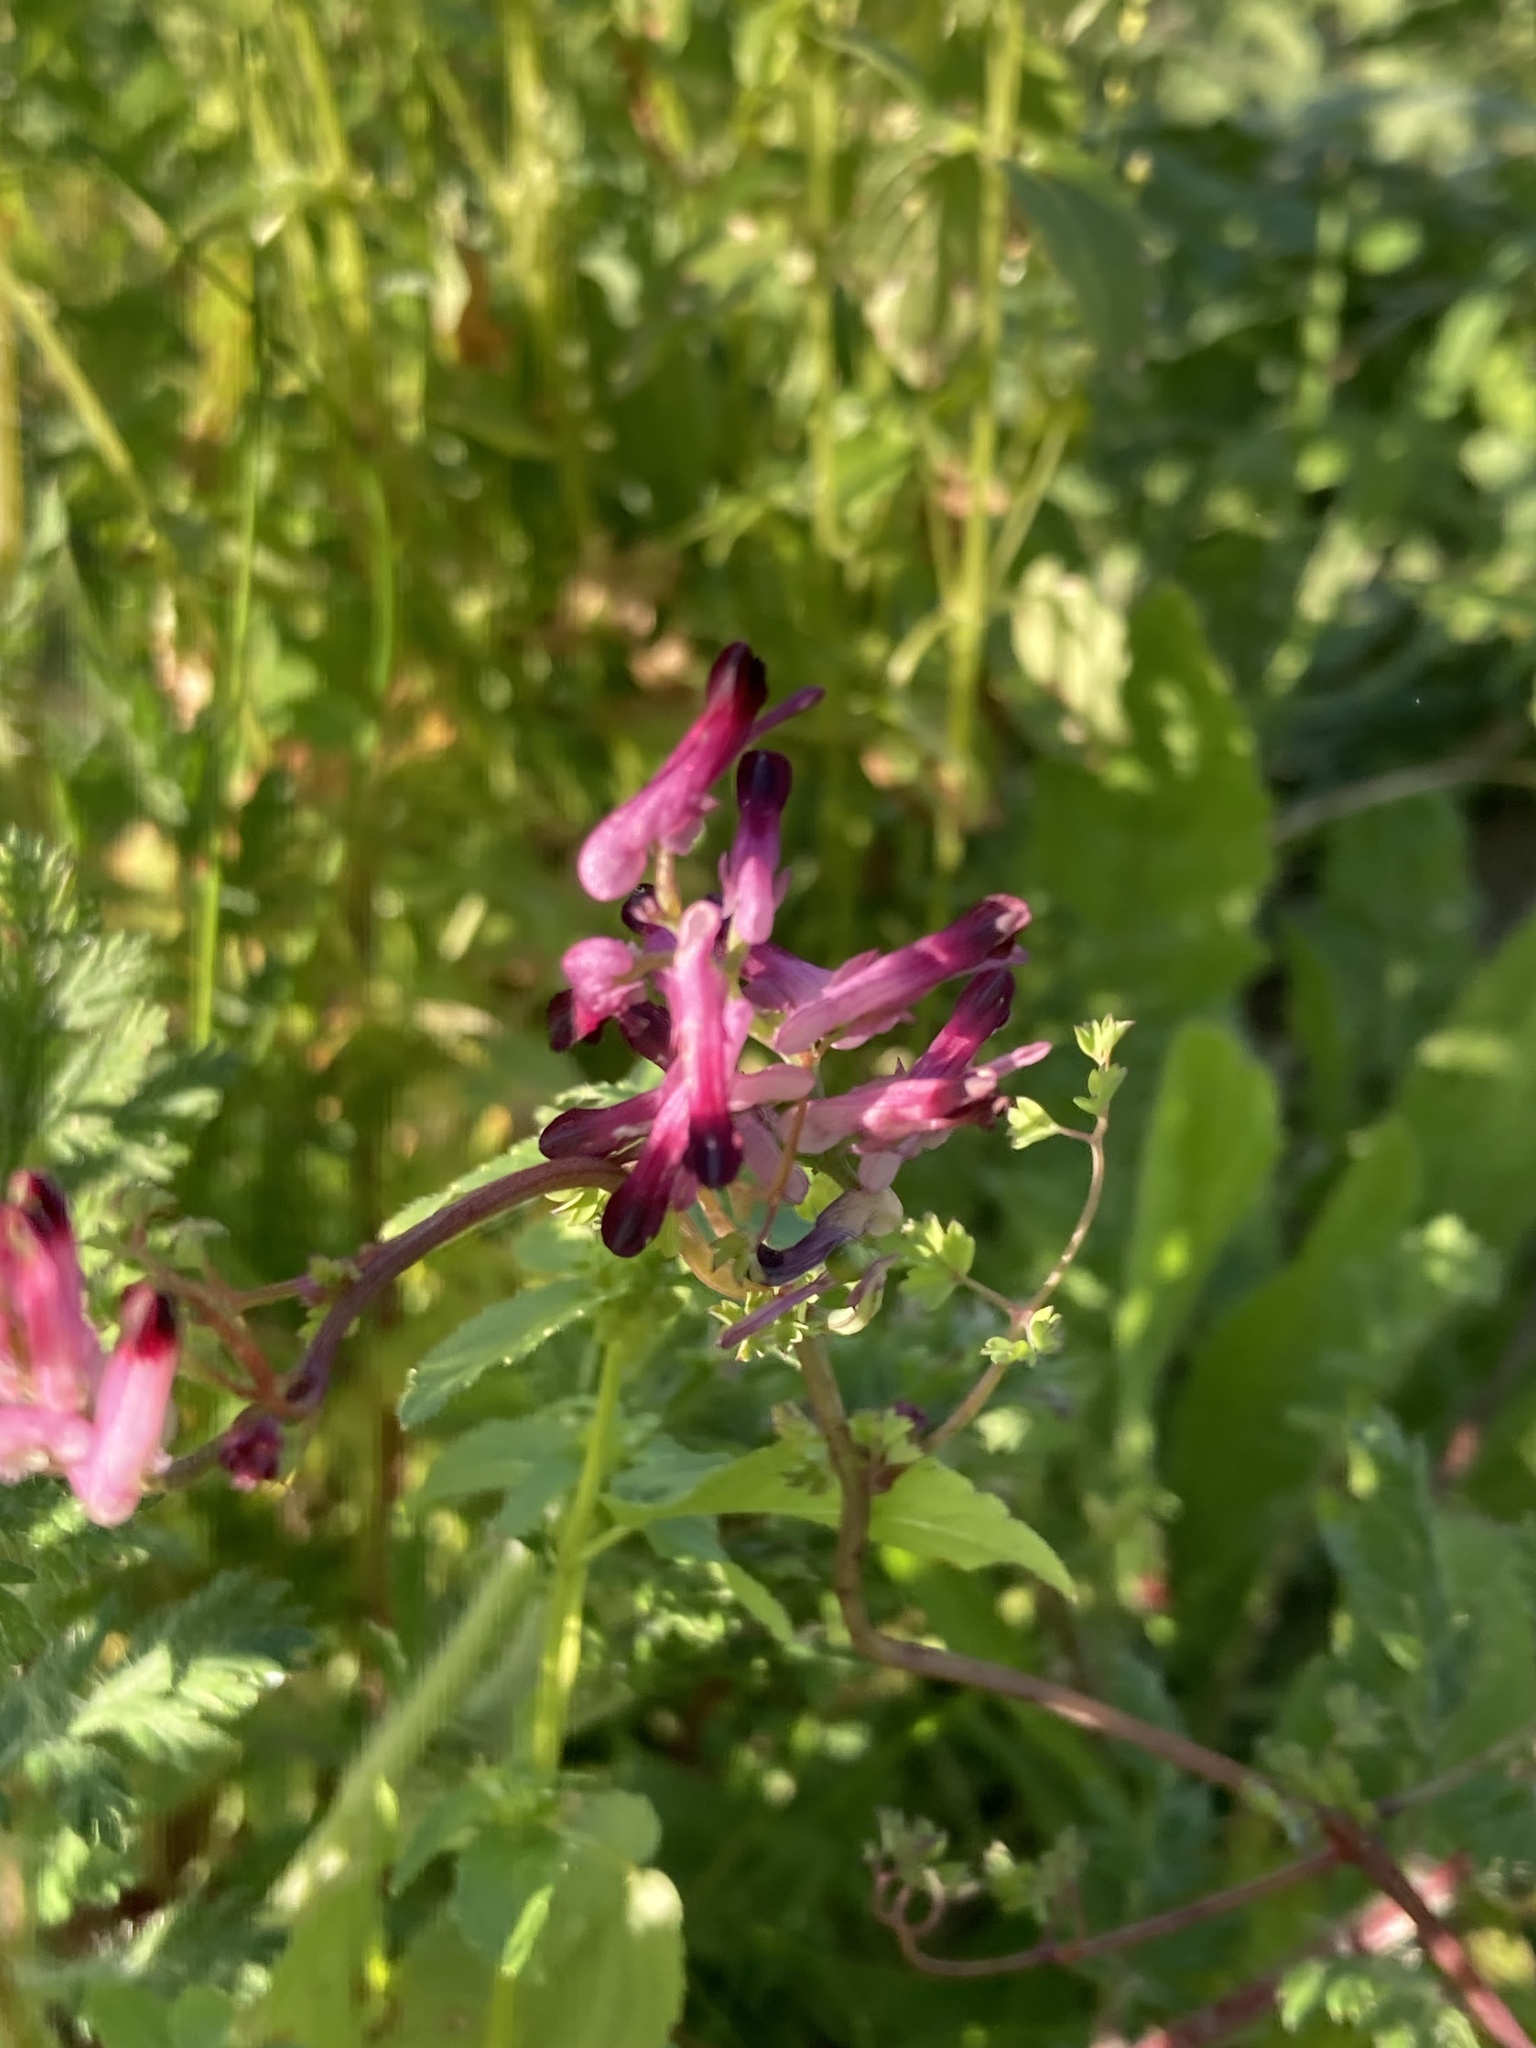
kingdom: Plantae
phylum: Tracheophyta
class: Magnoliopsida
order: Ranunculales
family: Papaveraceae
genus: Fumaria
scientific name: Fumaria officinalis
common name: Common fumitory
